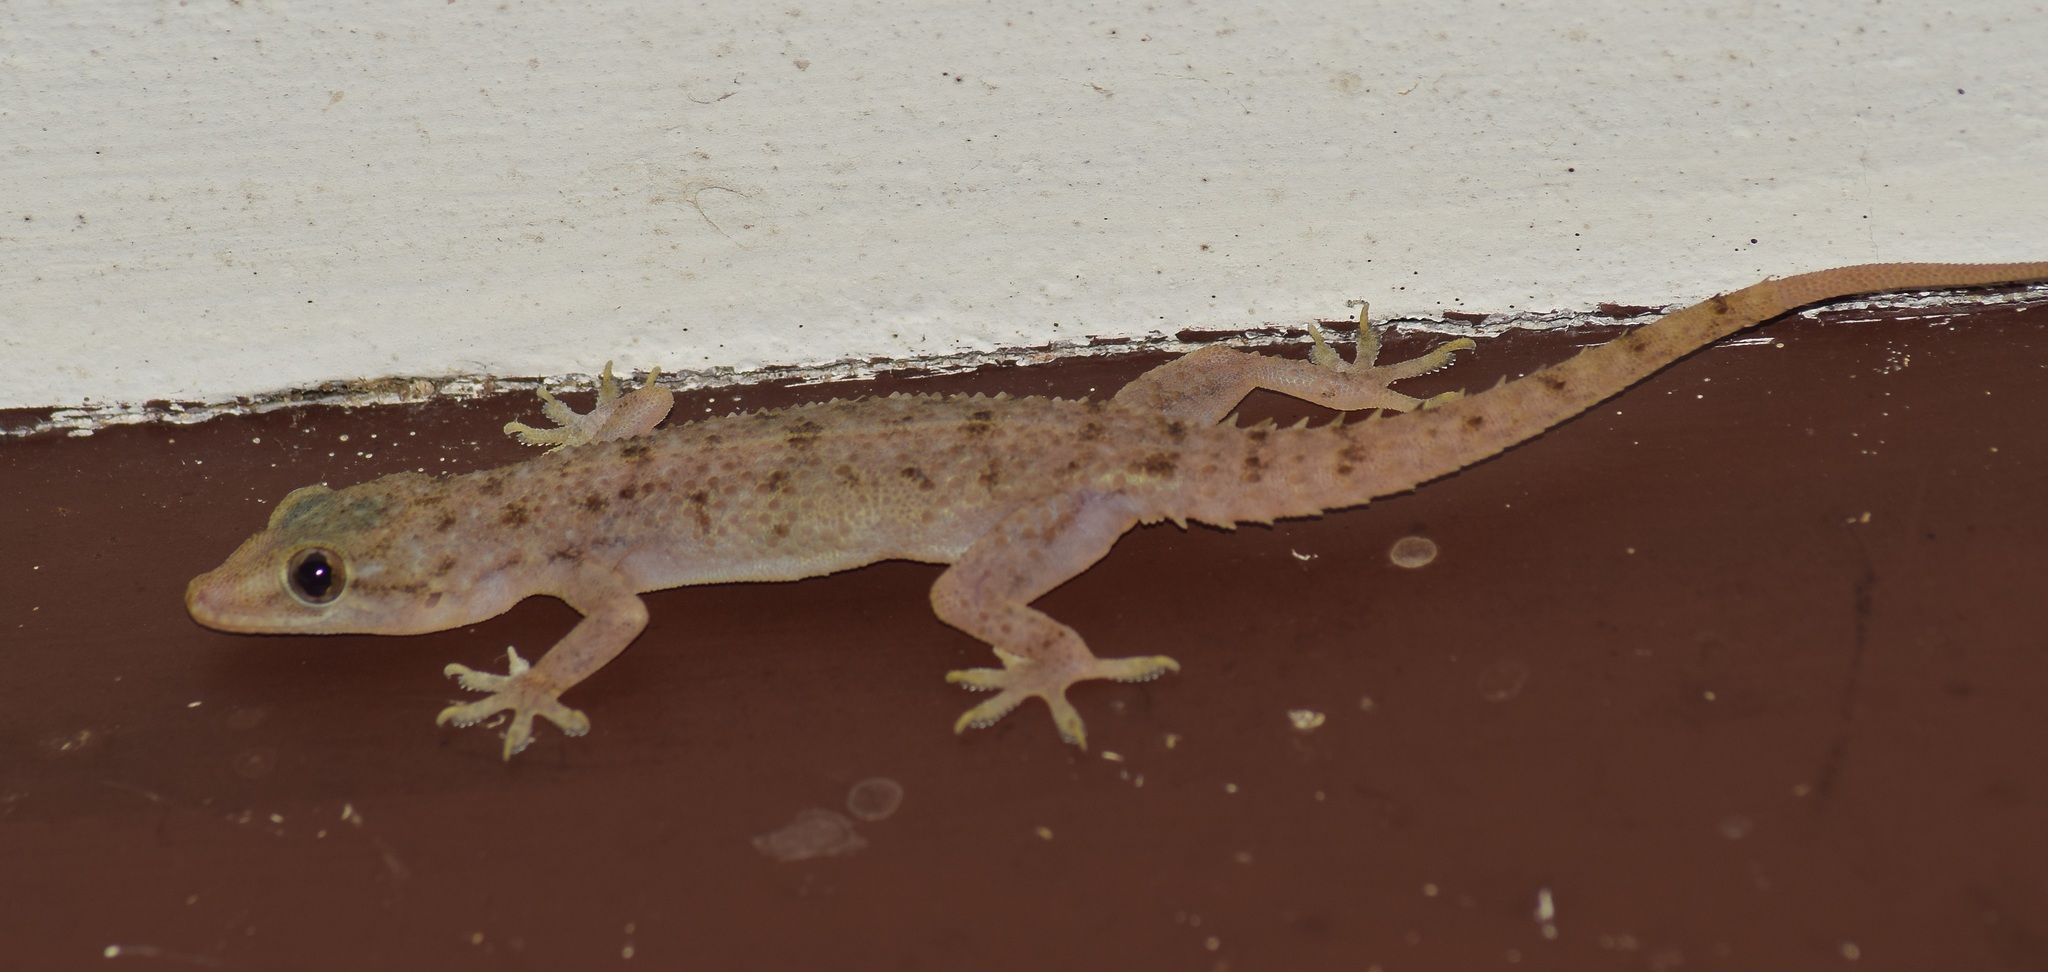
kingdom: Animalia
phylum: Chordata
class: Squamata
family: Gekkonidae
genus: Hemidactylus
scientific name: Hemidactylus parvimaculatus
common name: Spotted house gecko
